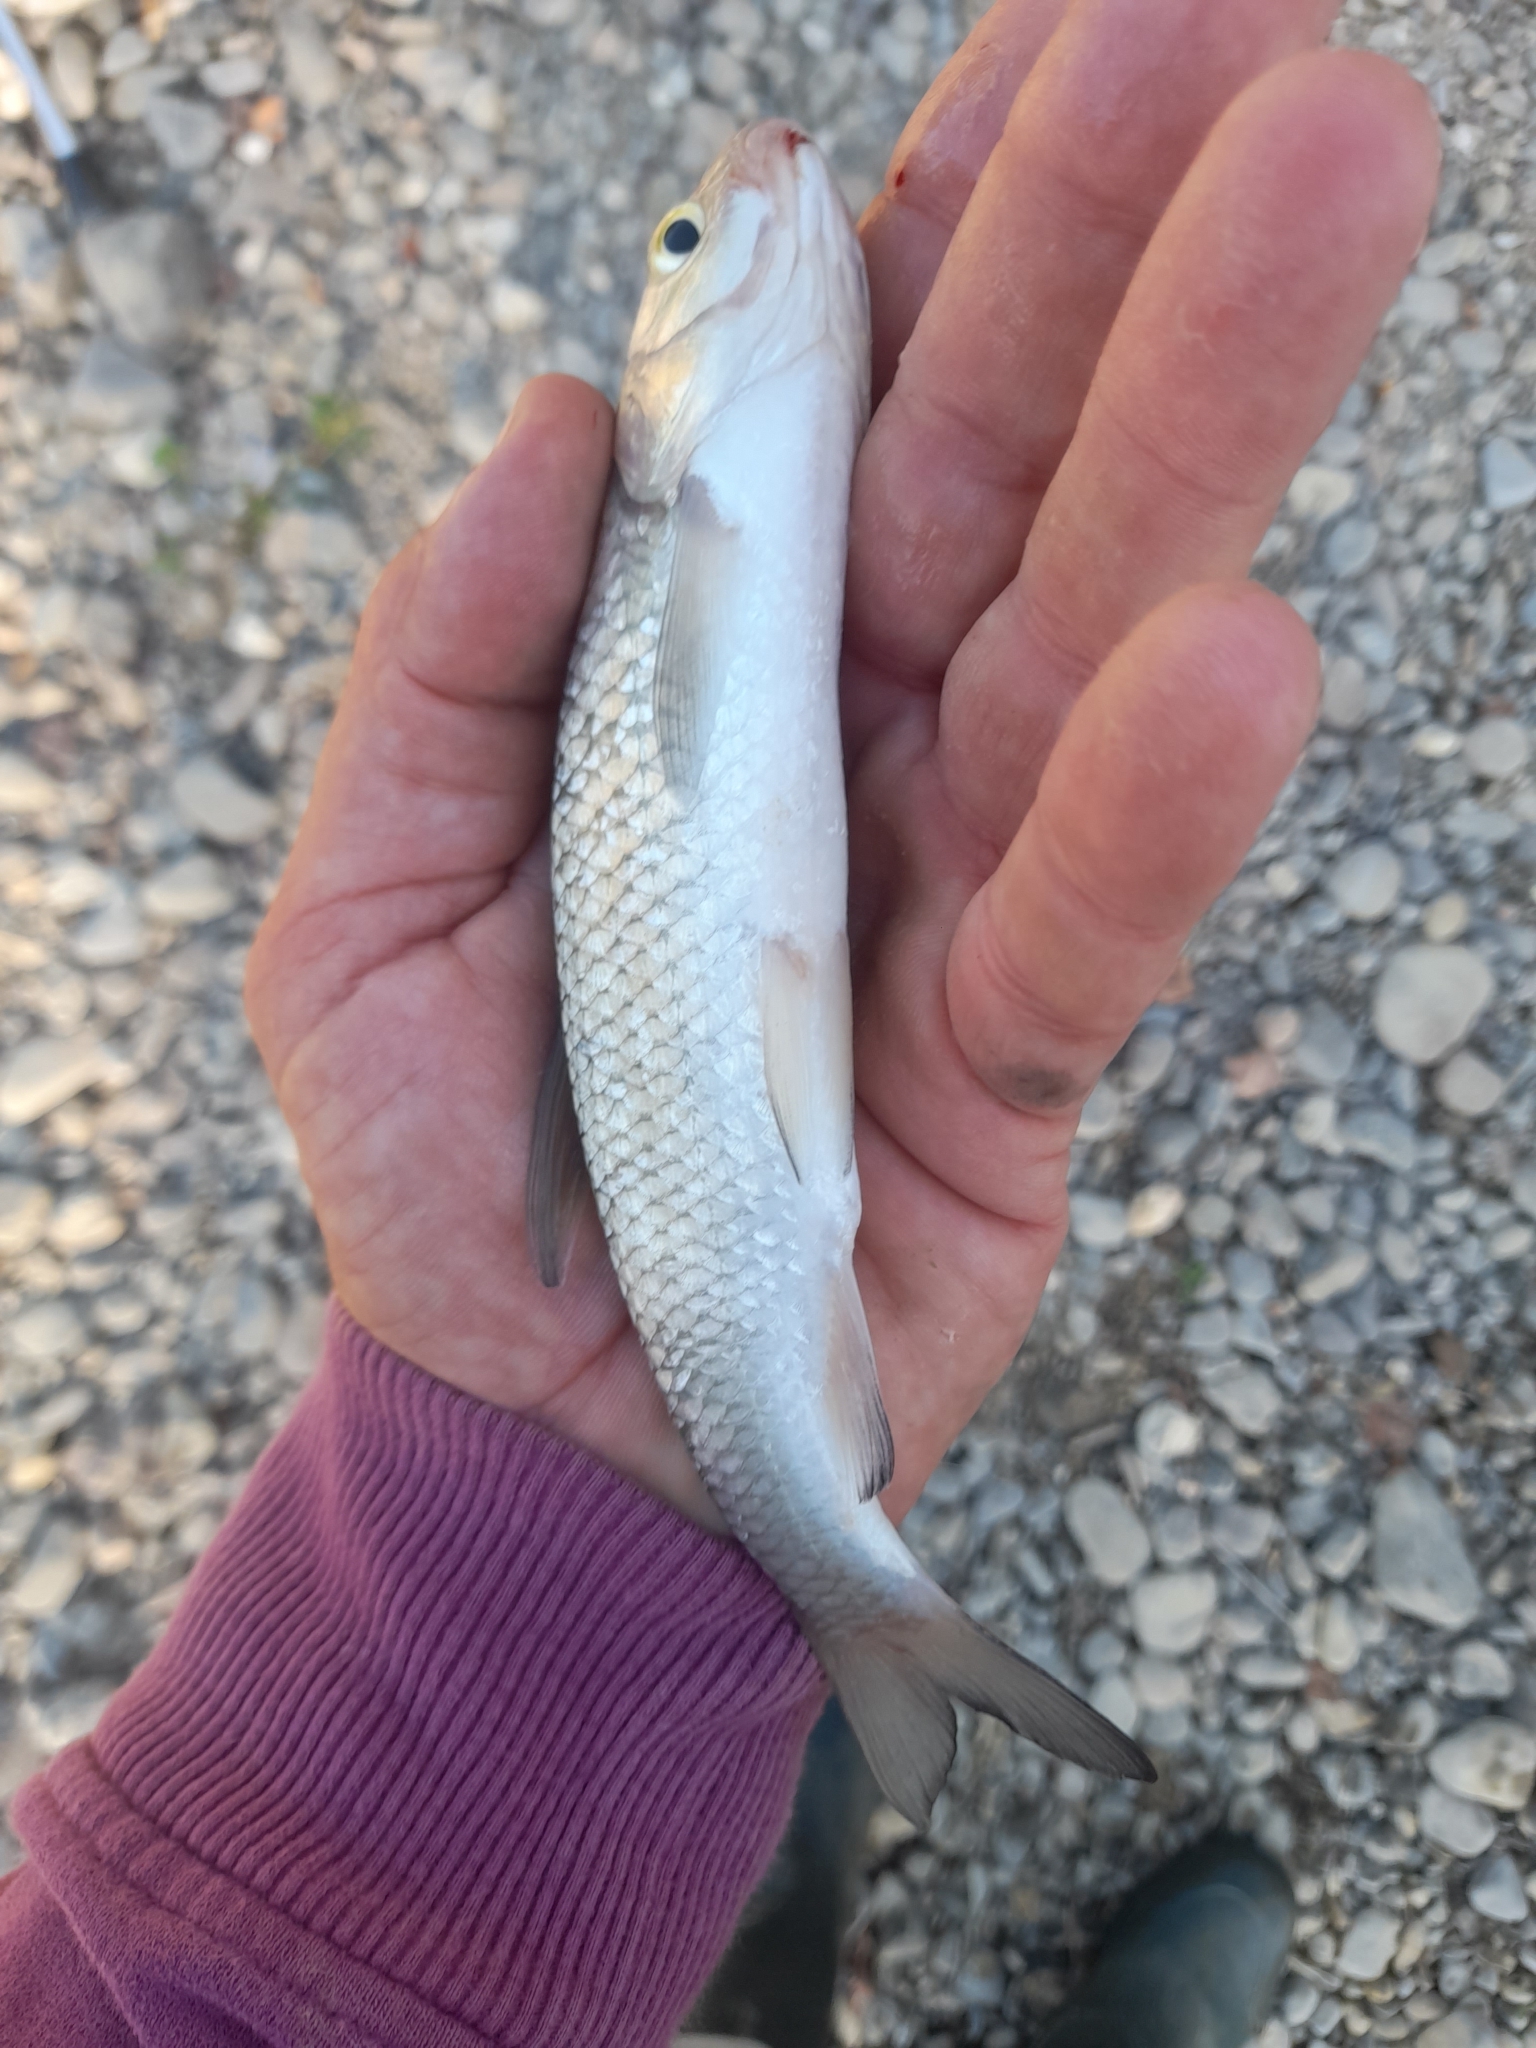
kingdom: Animalia
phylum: Chordata
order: Cypriniformes
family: Cyprinidae
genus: Squalius
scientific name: Squalius squalus
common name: Italian chub
